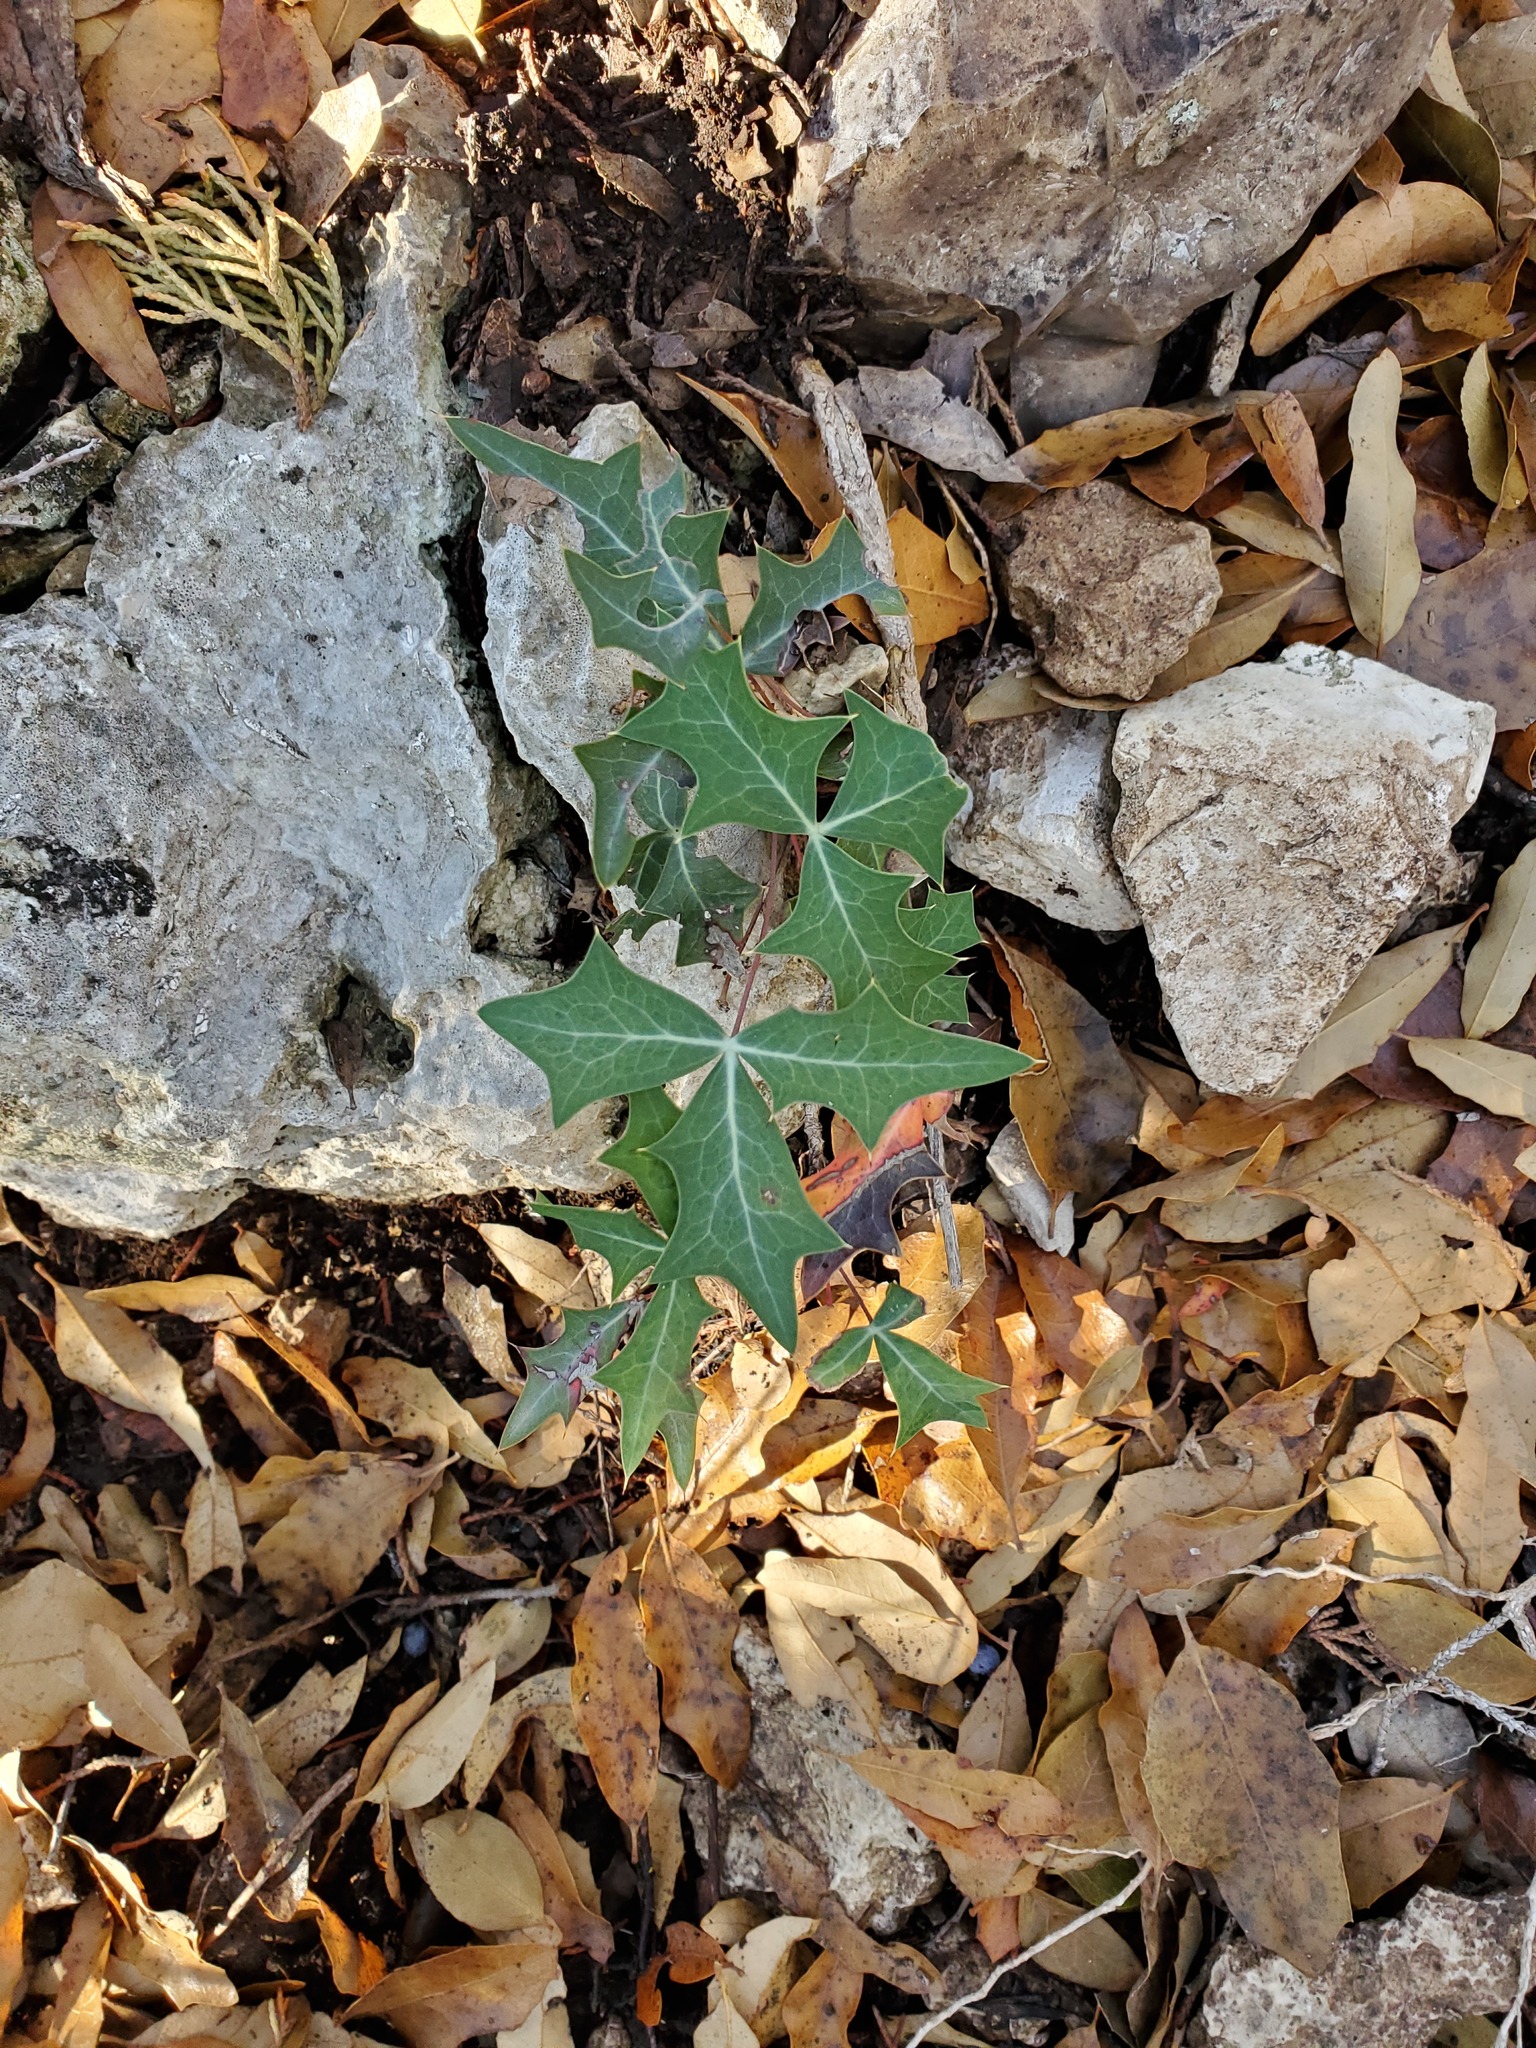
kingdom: Plantae
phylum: Tracheophyta
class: Magnoliopsida
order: Ranunculales
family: Berberidaceae
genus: Alloberberis
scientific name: Alloberberis trifoliolata
